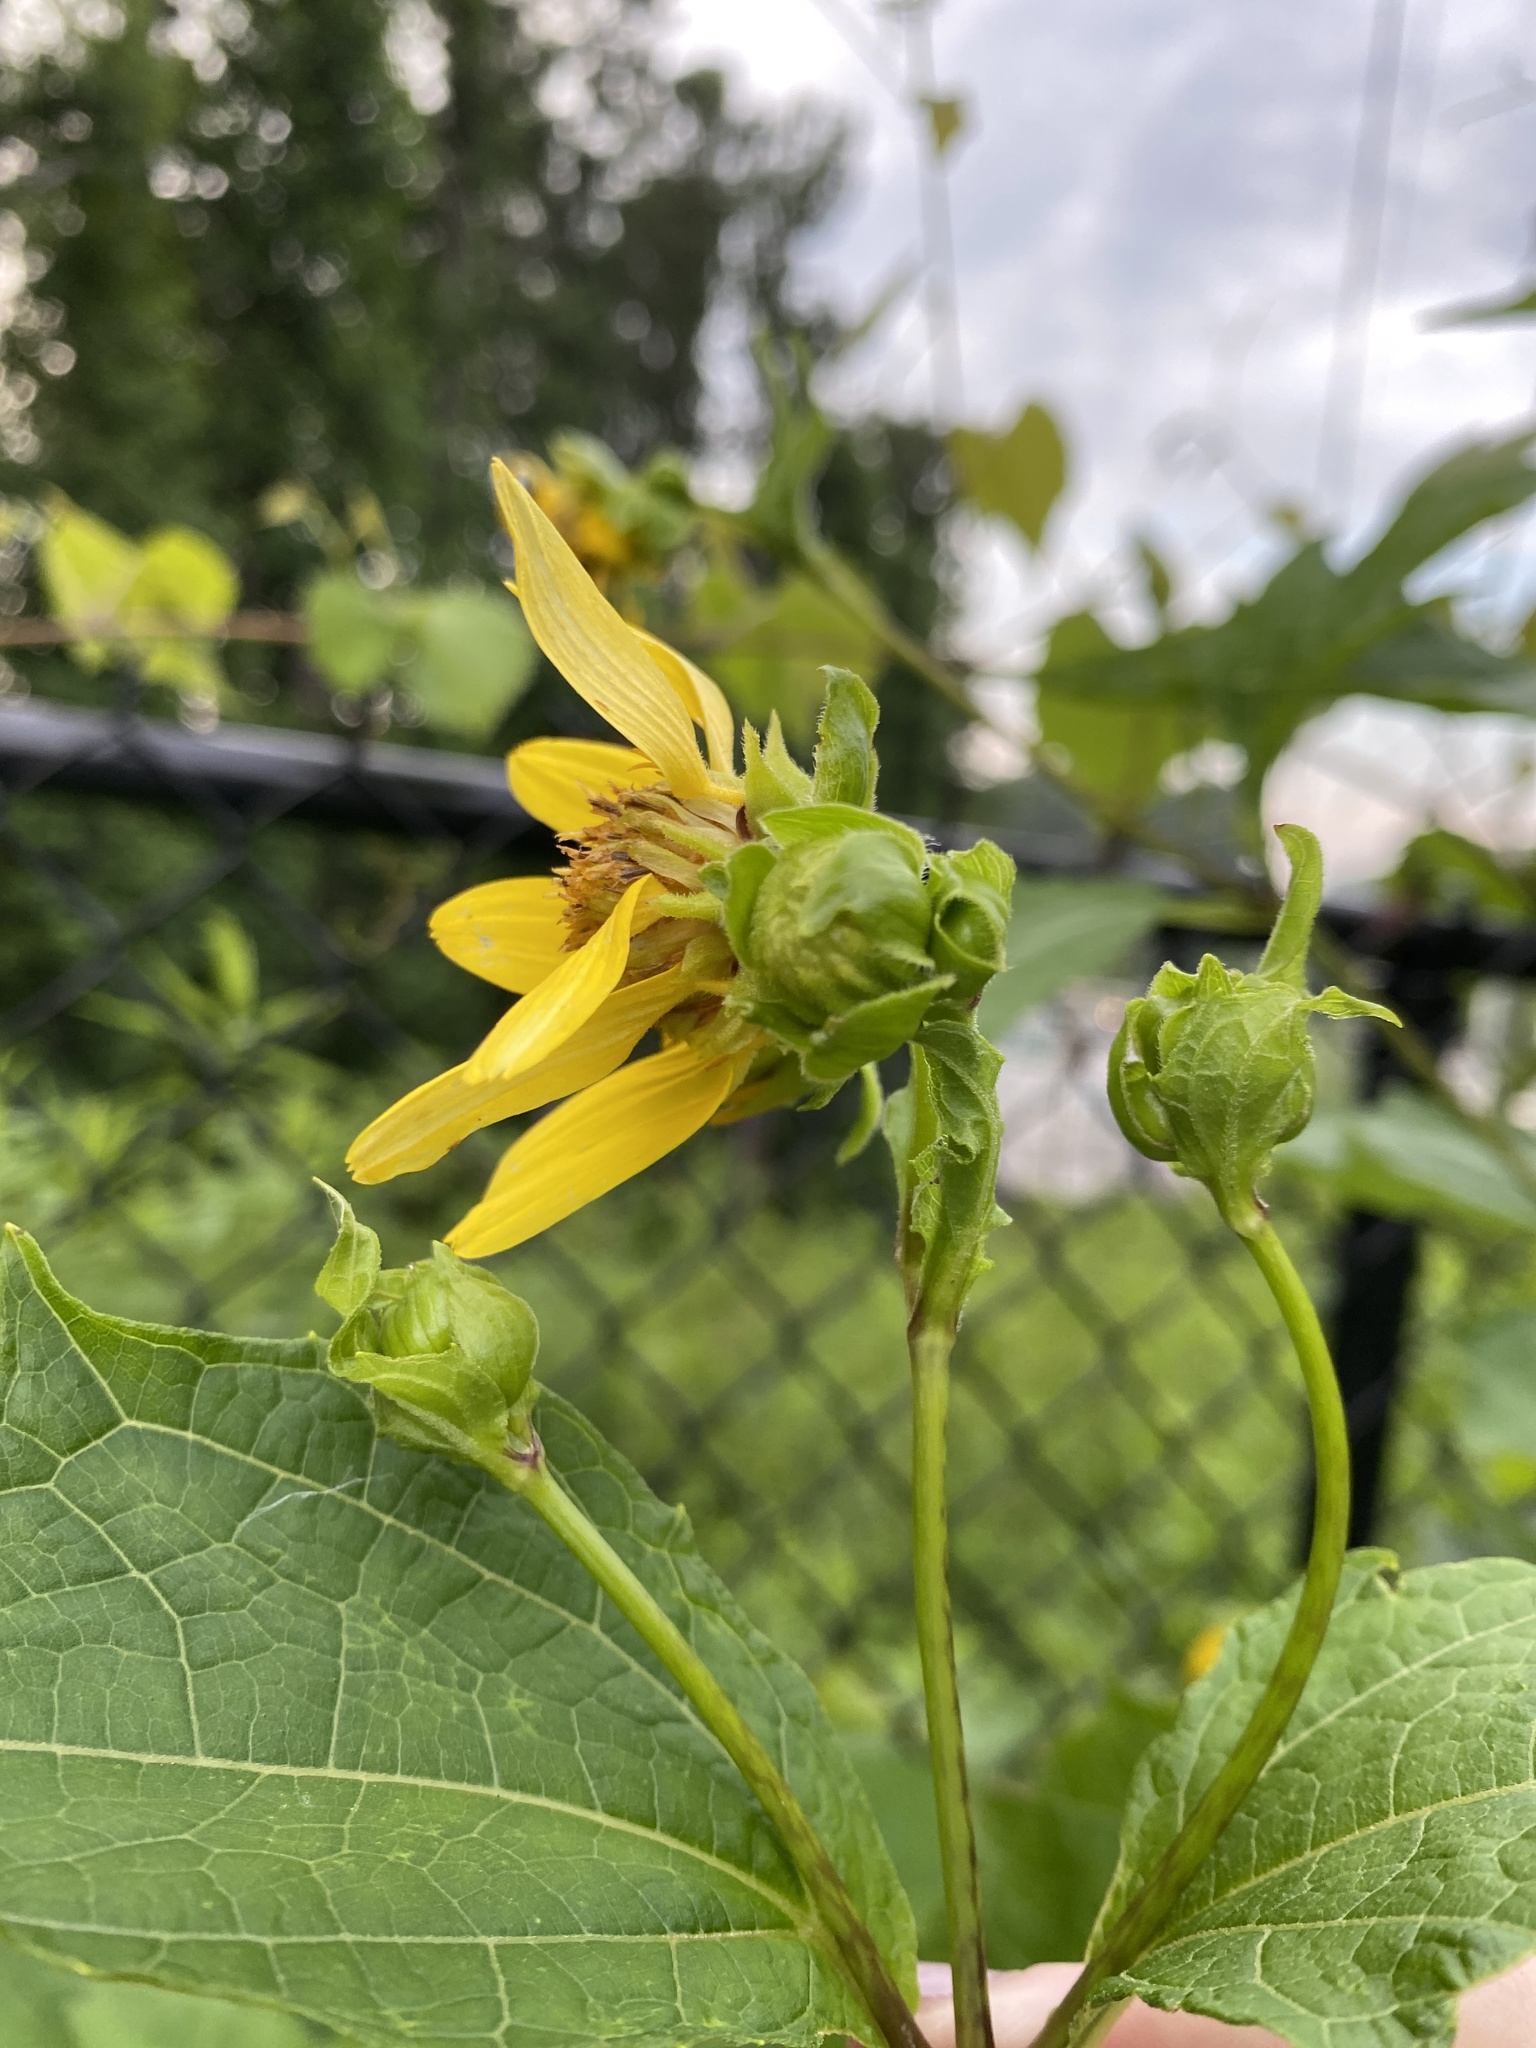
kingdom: Plantae
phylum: Tracheophyta
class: Magnoliopsida
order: Asterales
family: Asteraceae
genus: Smallanthus
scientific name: Smallanthus uvedalia
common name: Bear's-foot
